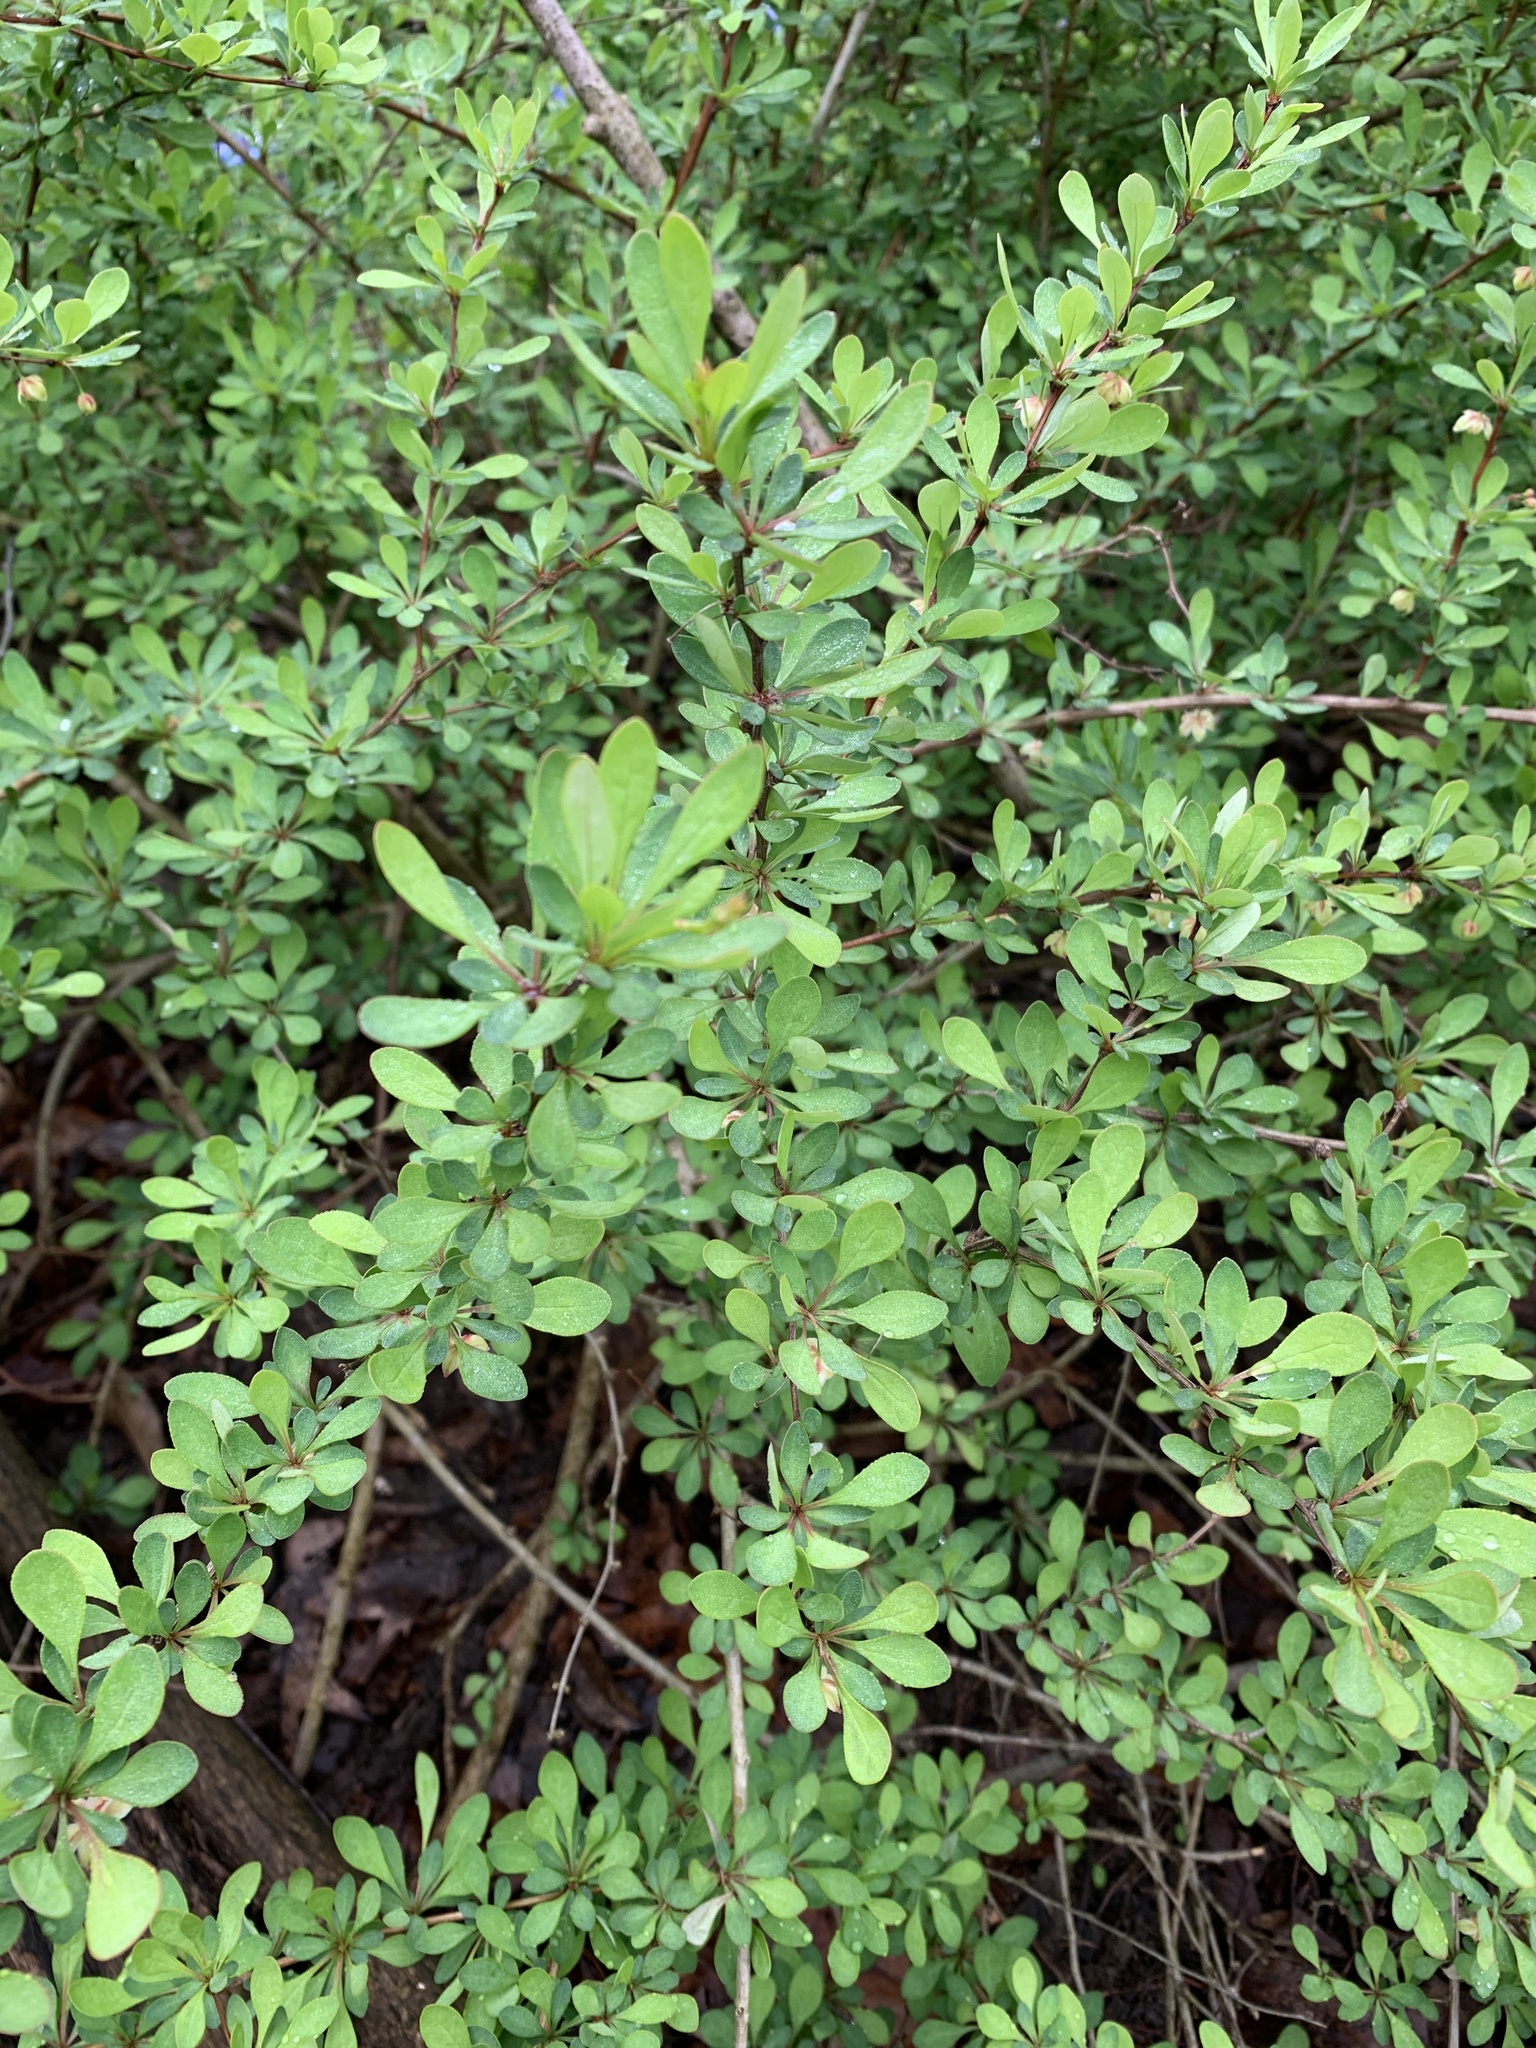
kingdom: Plantae
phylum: Tracheophyta
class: Magnoliopsida
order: Ranunculales
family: Berberidaceae
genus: Berberis
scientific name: Berberis thunbergii
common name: Japanese barberry
